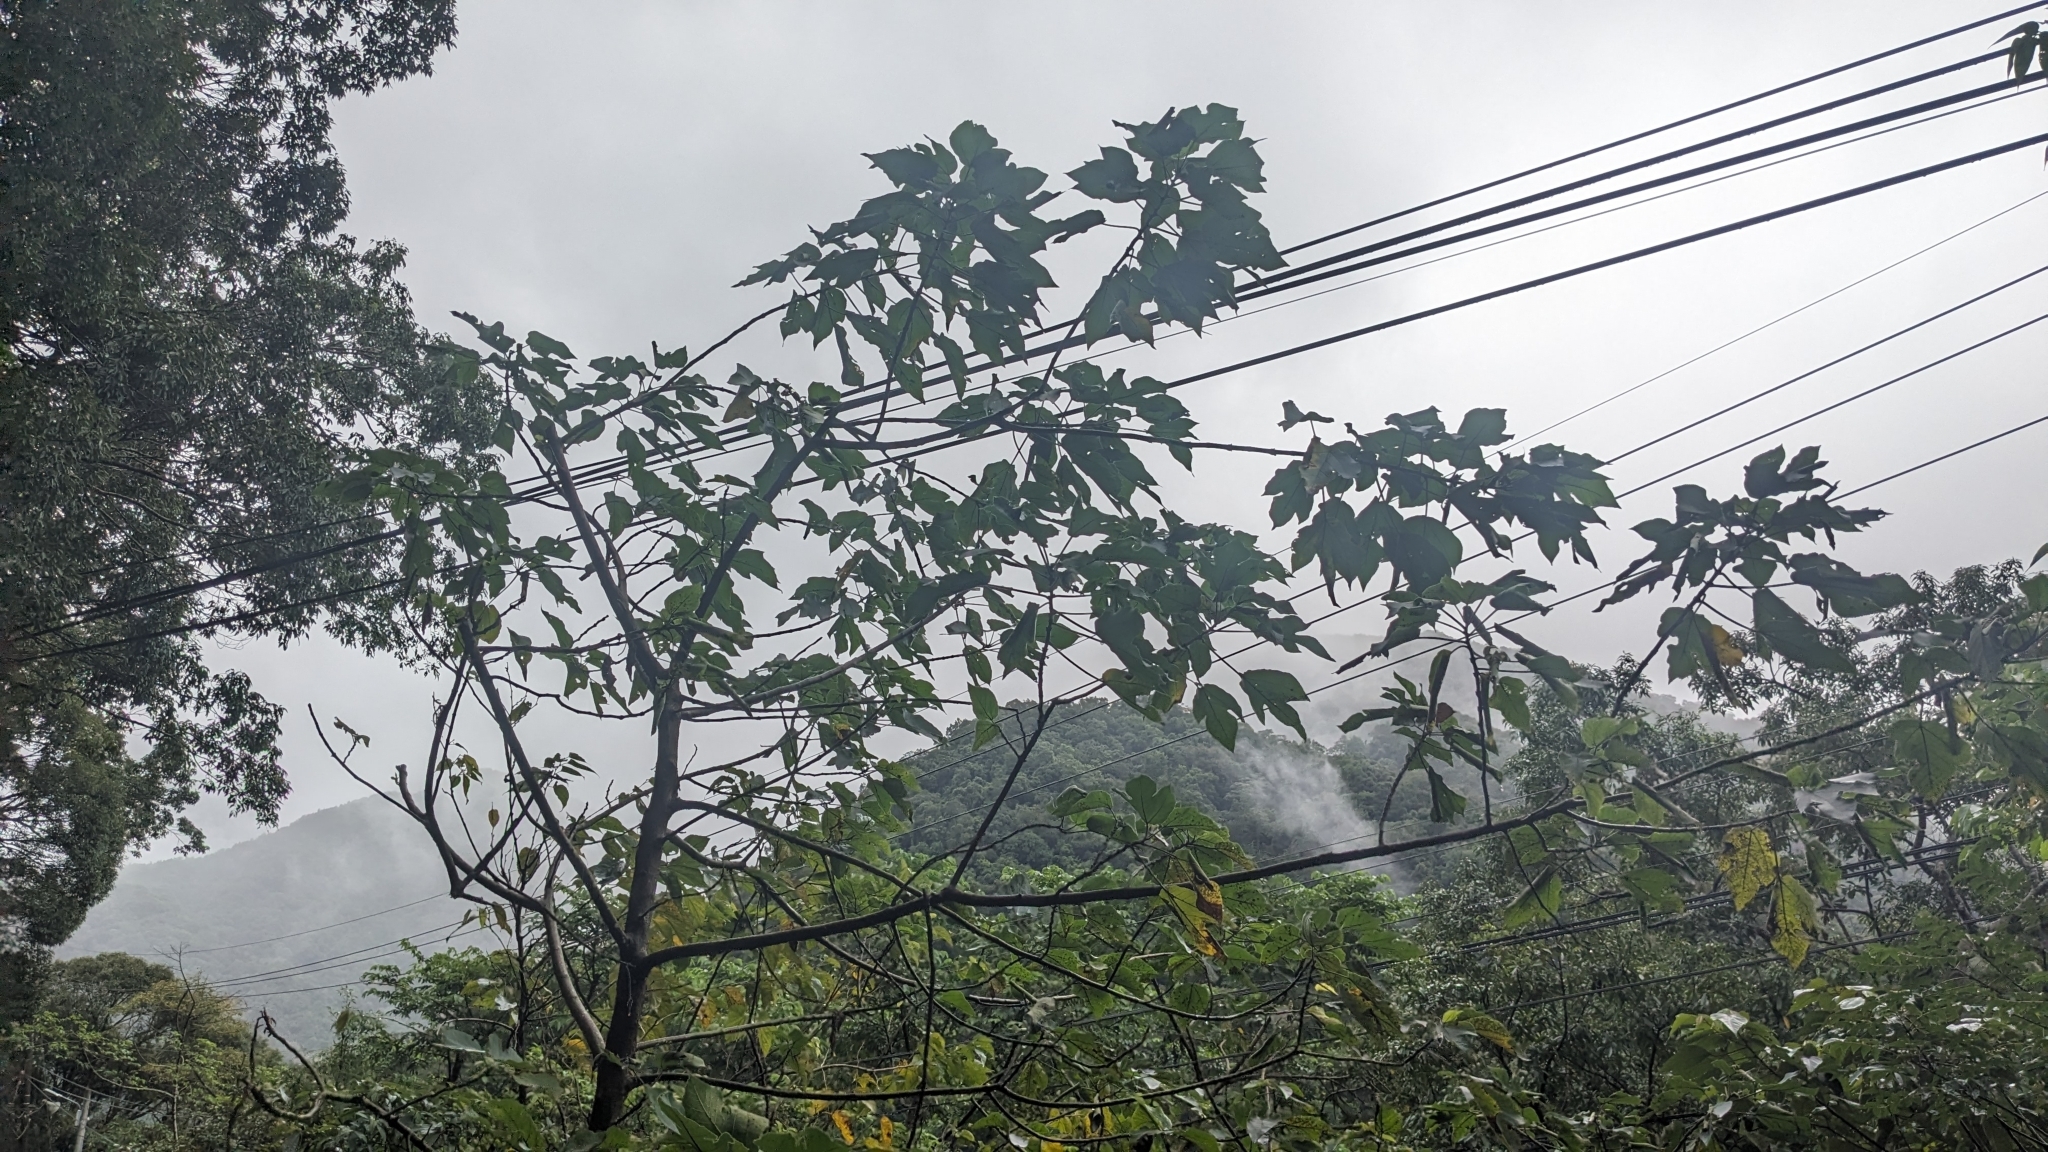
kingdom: Plantae
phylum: Tracheophyta
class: Magnoliopsida
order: Rosales
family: Moraceae
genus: Broussonetia
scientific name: Broussonetia papyrifera
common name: Paper mulberry
